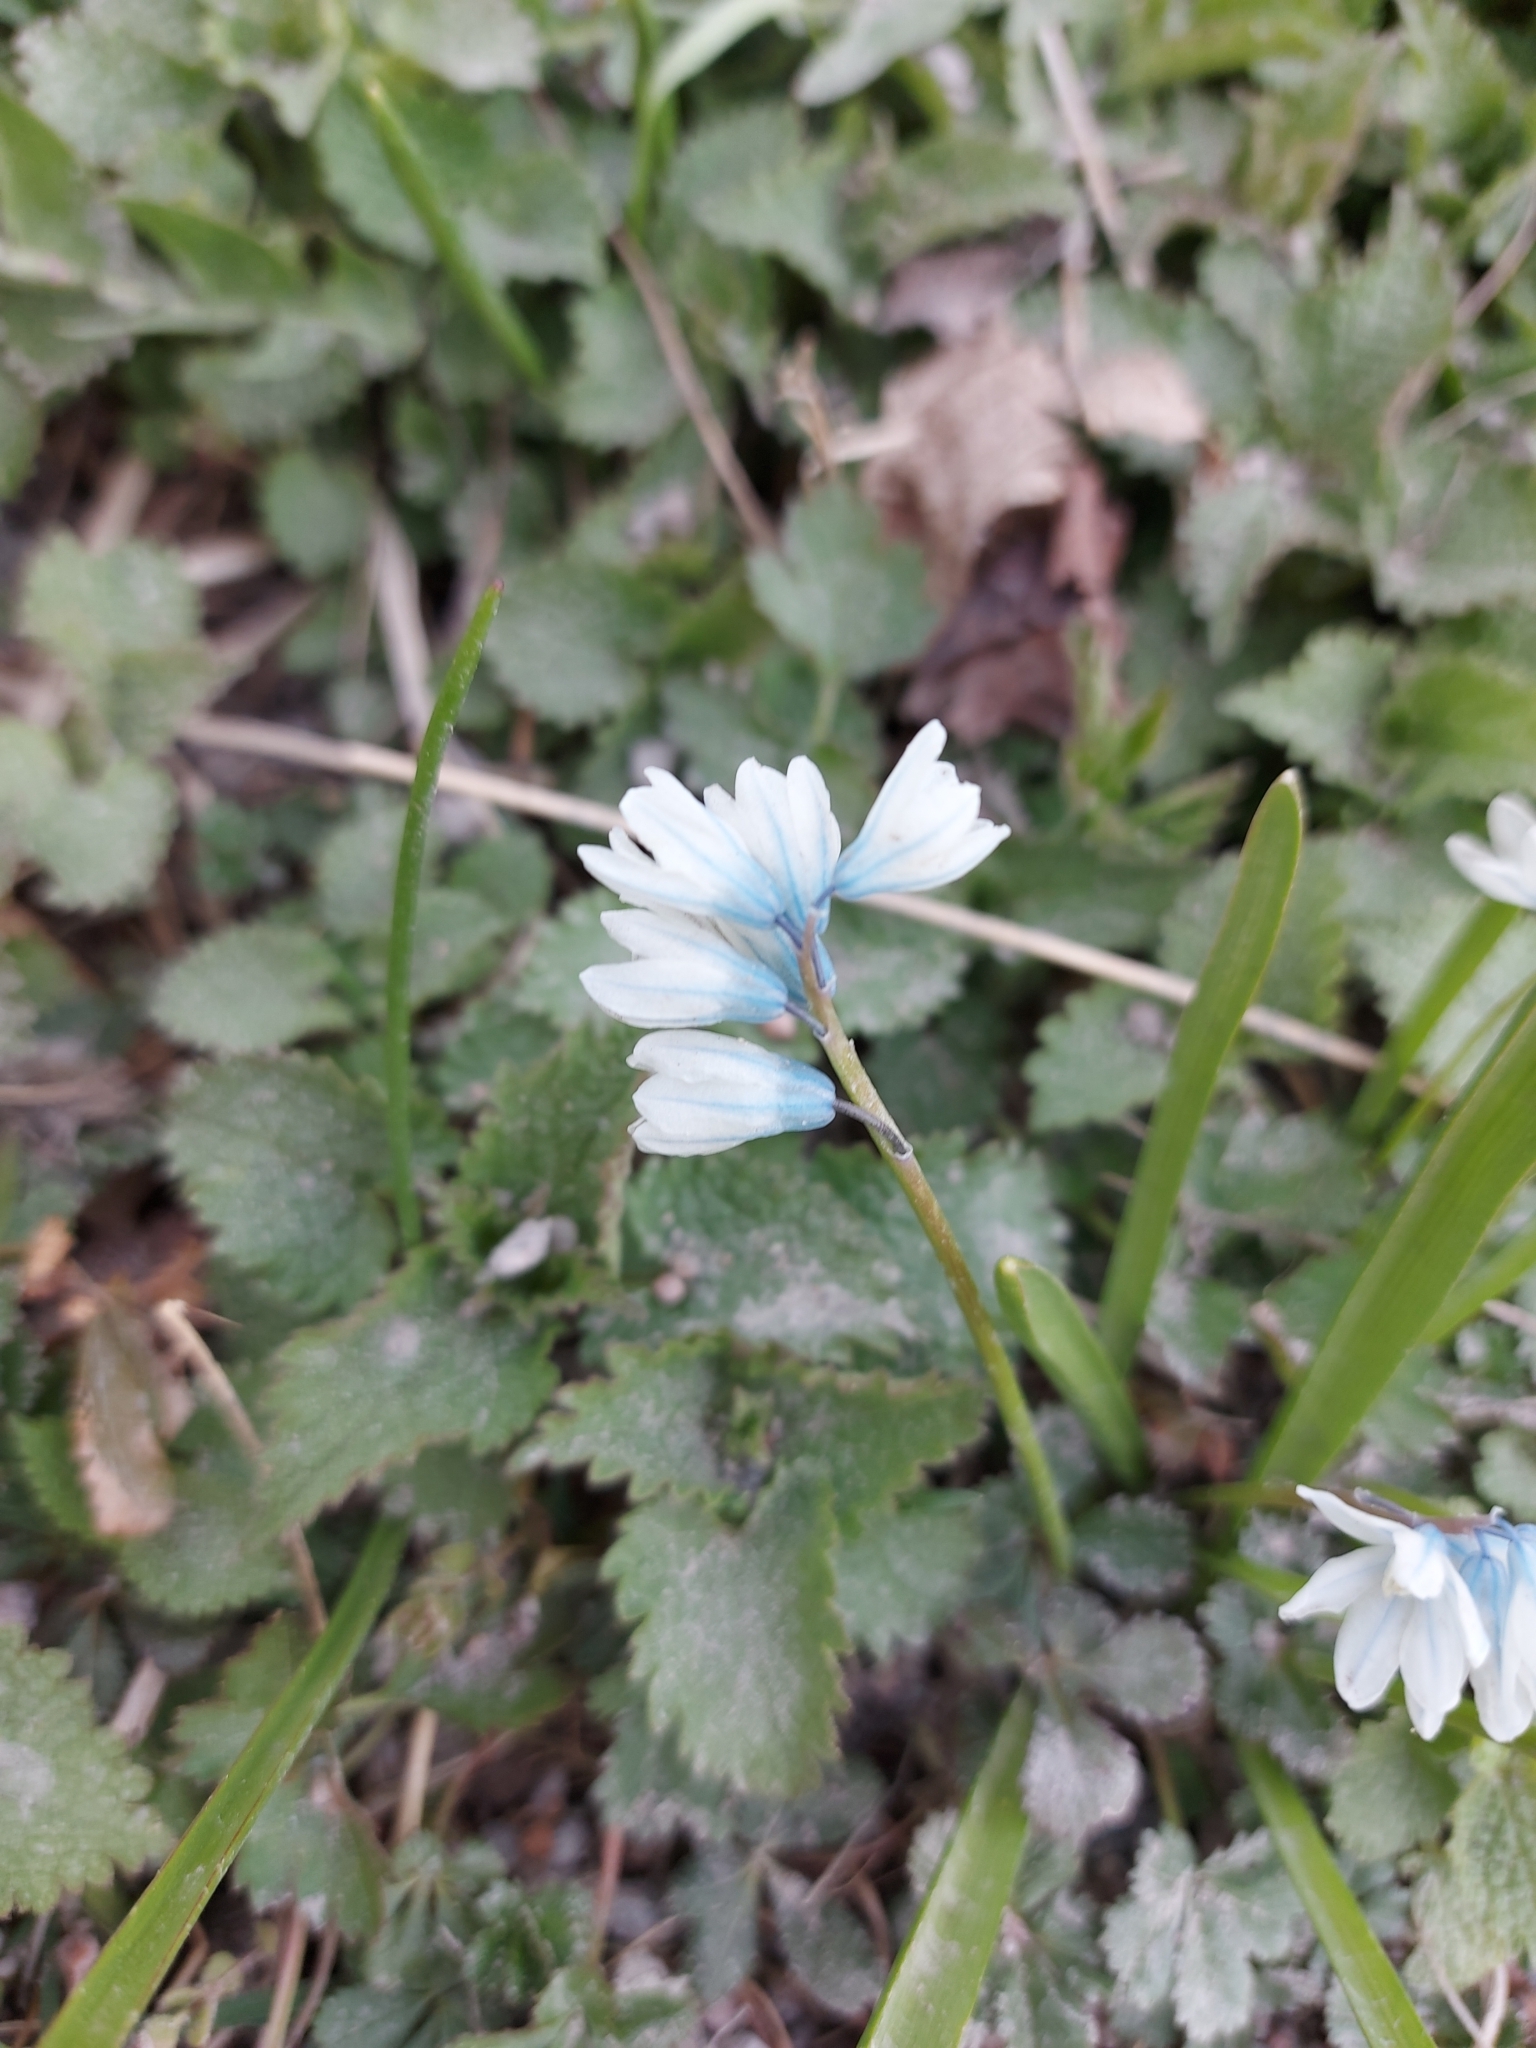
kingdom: Plantae
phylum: Tracheophyta
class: Liliopsida
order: Asparagales
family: Asparagaceae
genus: Puschkinia
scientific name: Puschkinia scilloides
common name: Striped squill
